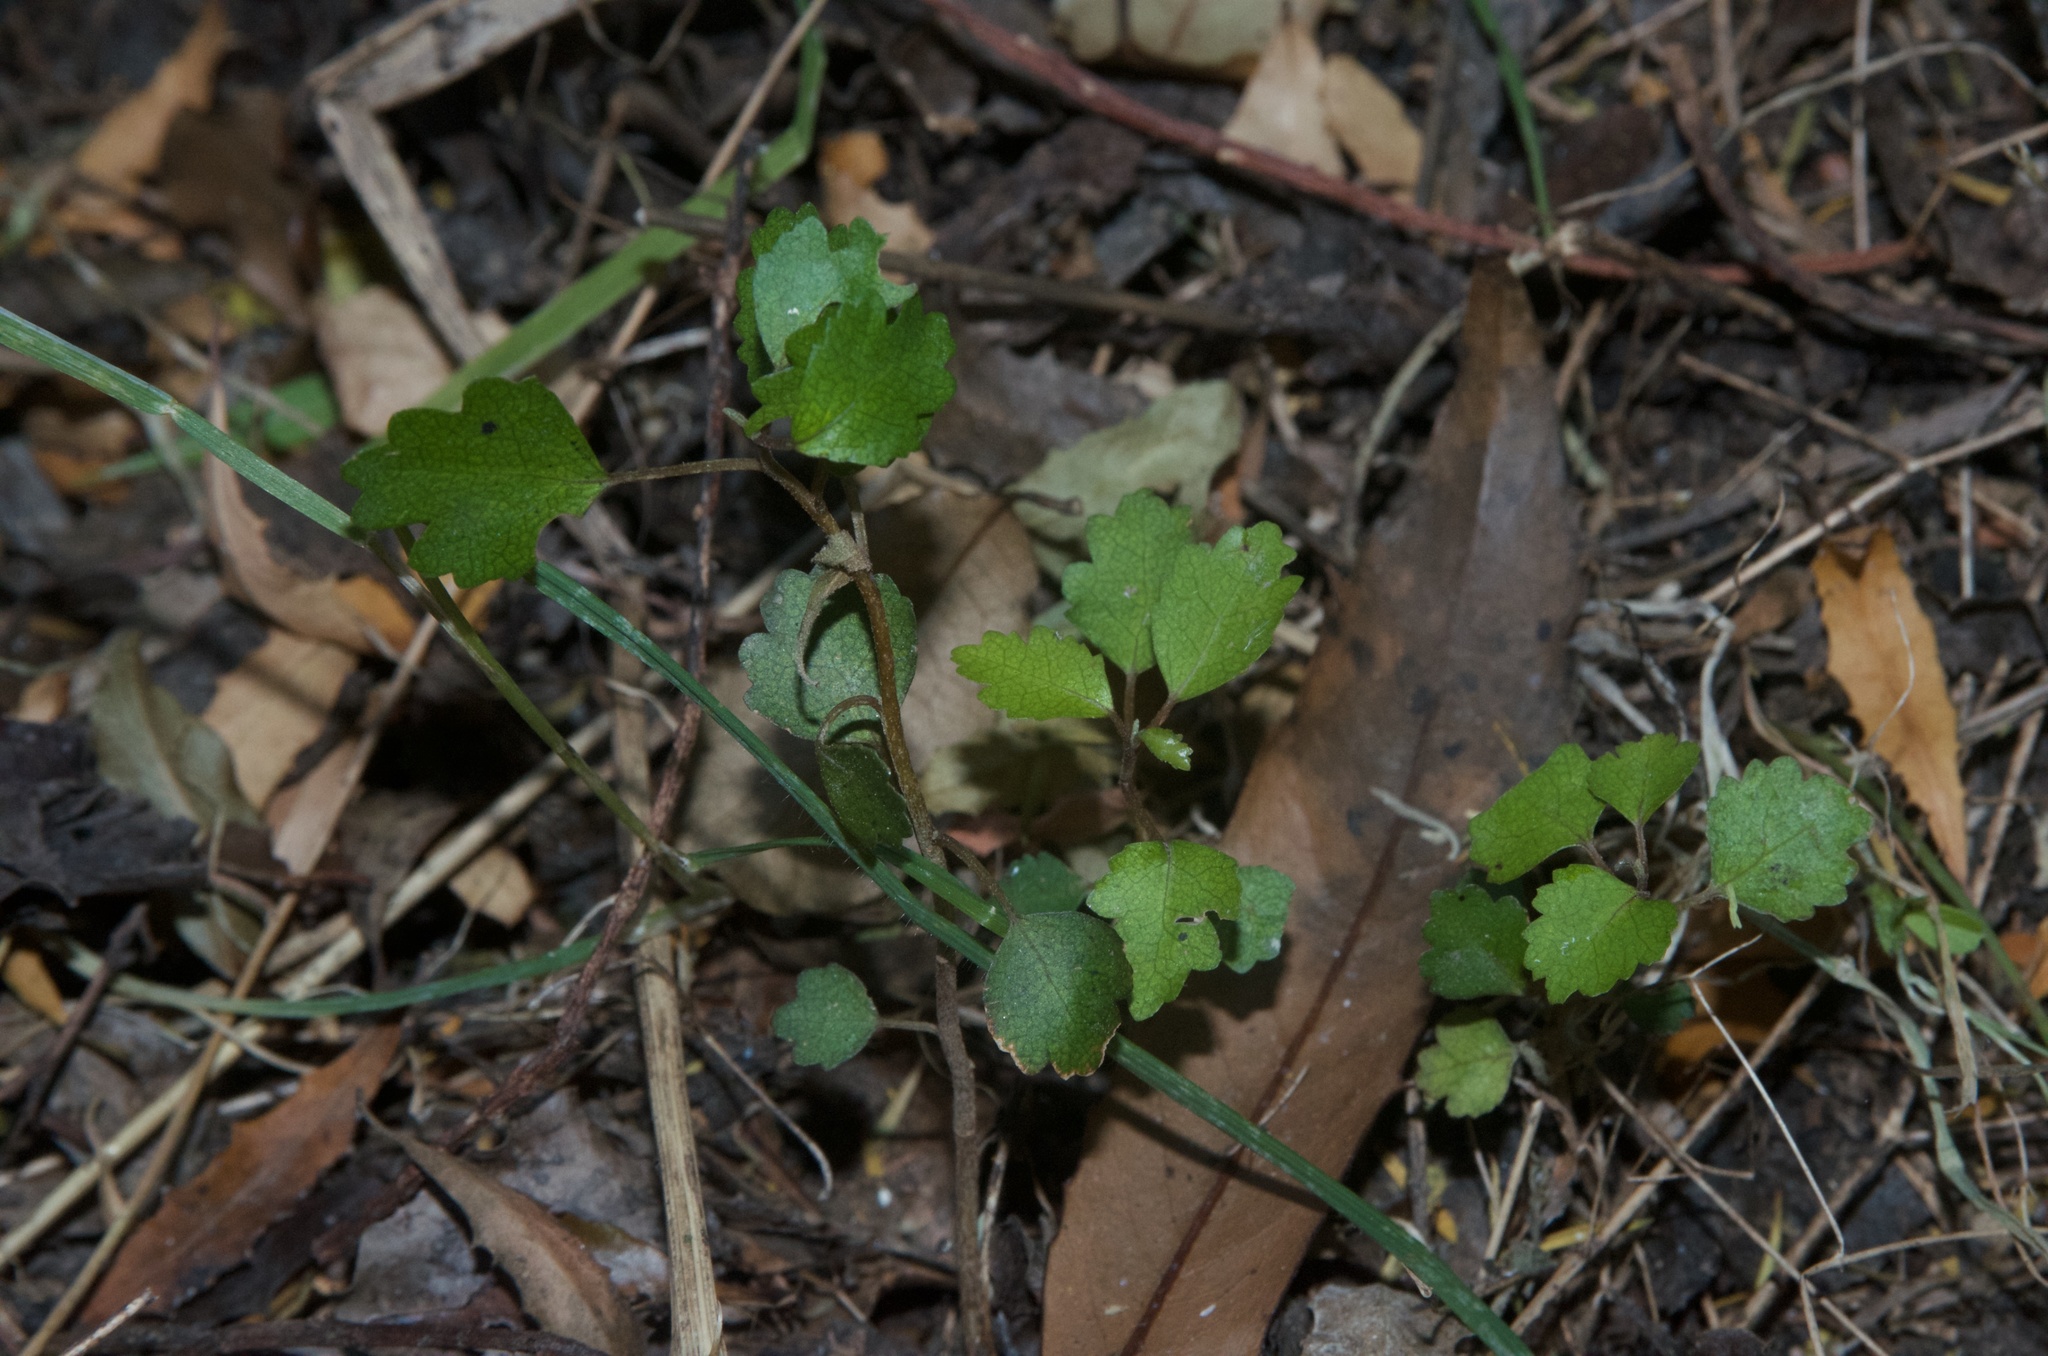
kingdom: Plantae
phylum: Tracheophyta
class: Magnoliopsida
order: Malvales
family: Malvaceae
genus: Hoheria
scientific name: Hoheria angustifolia
